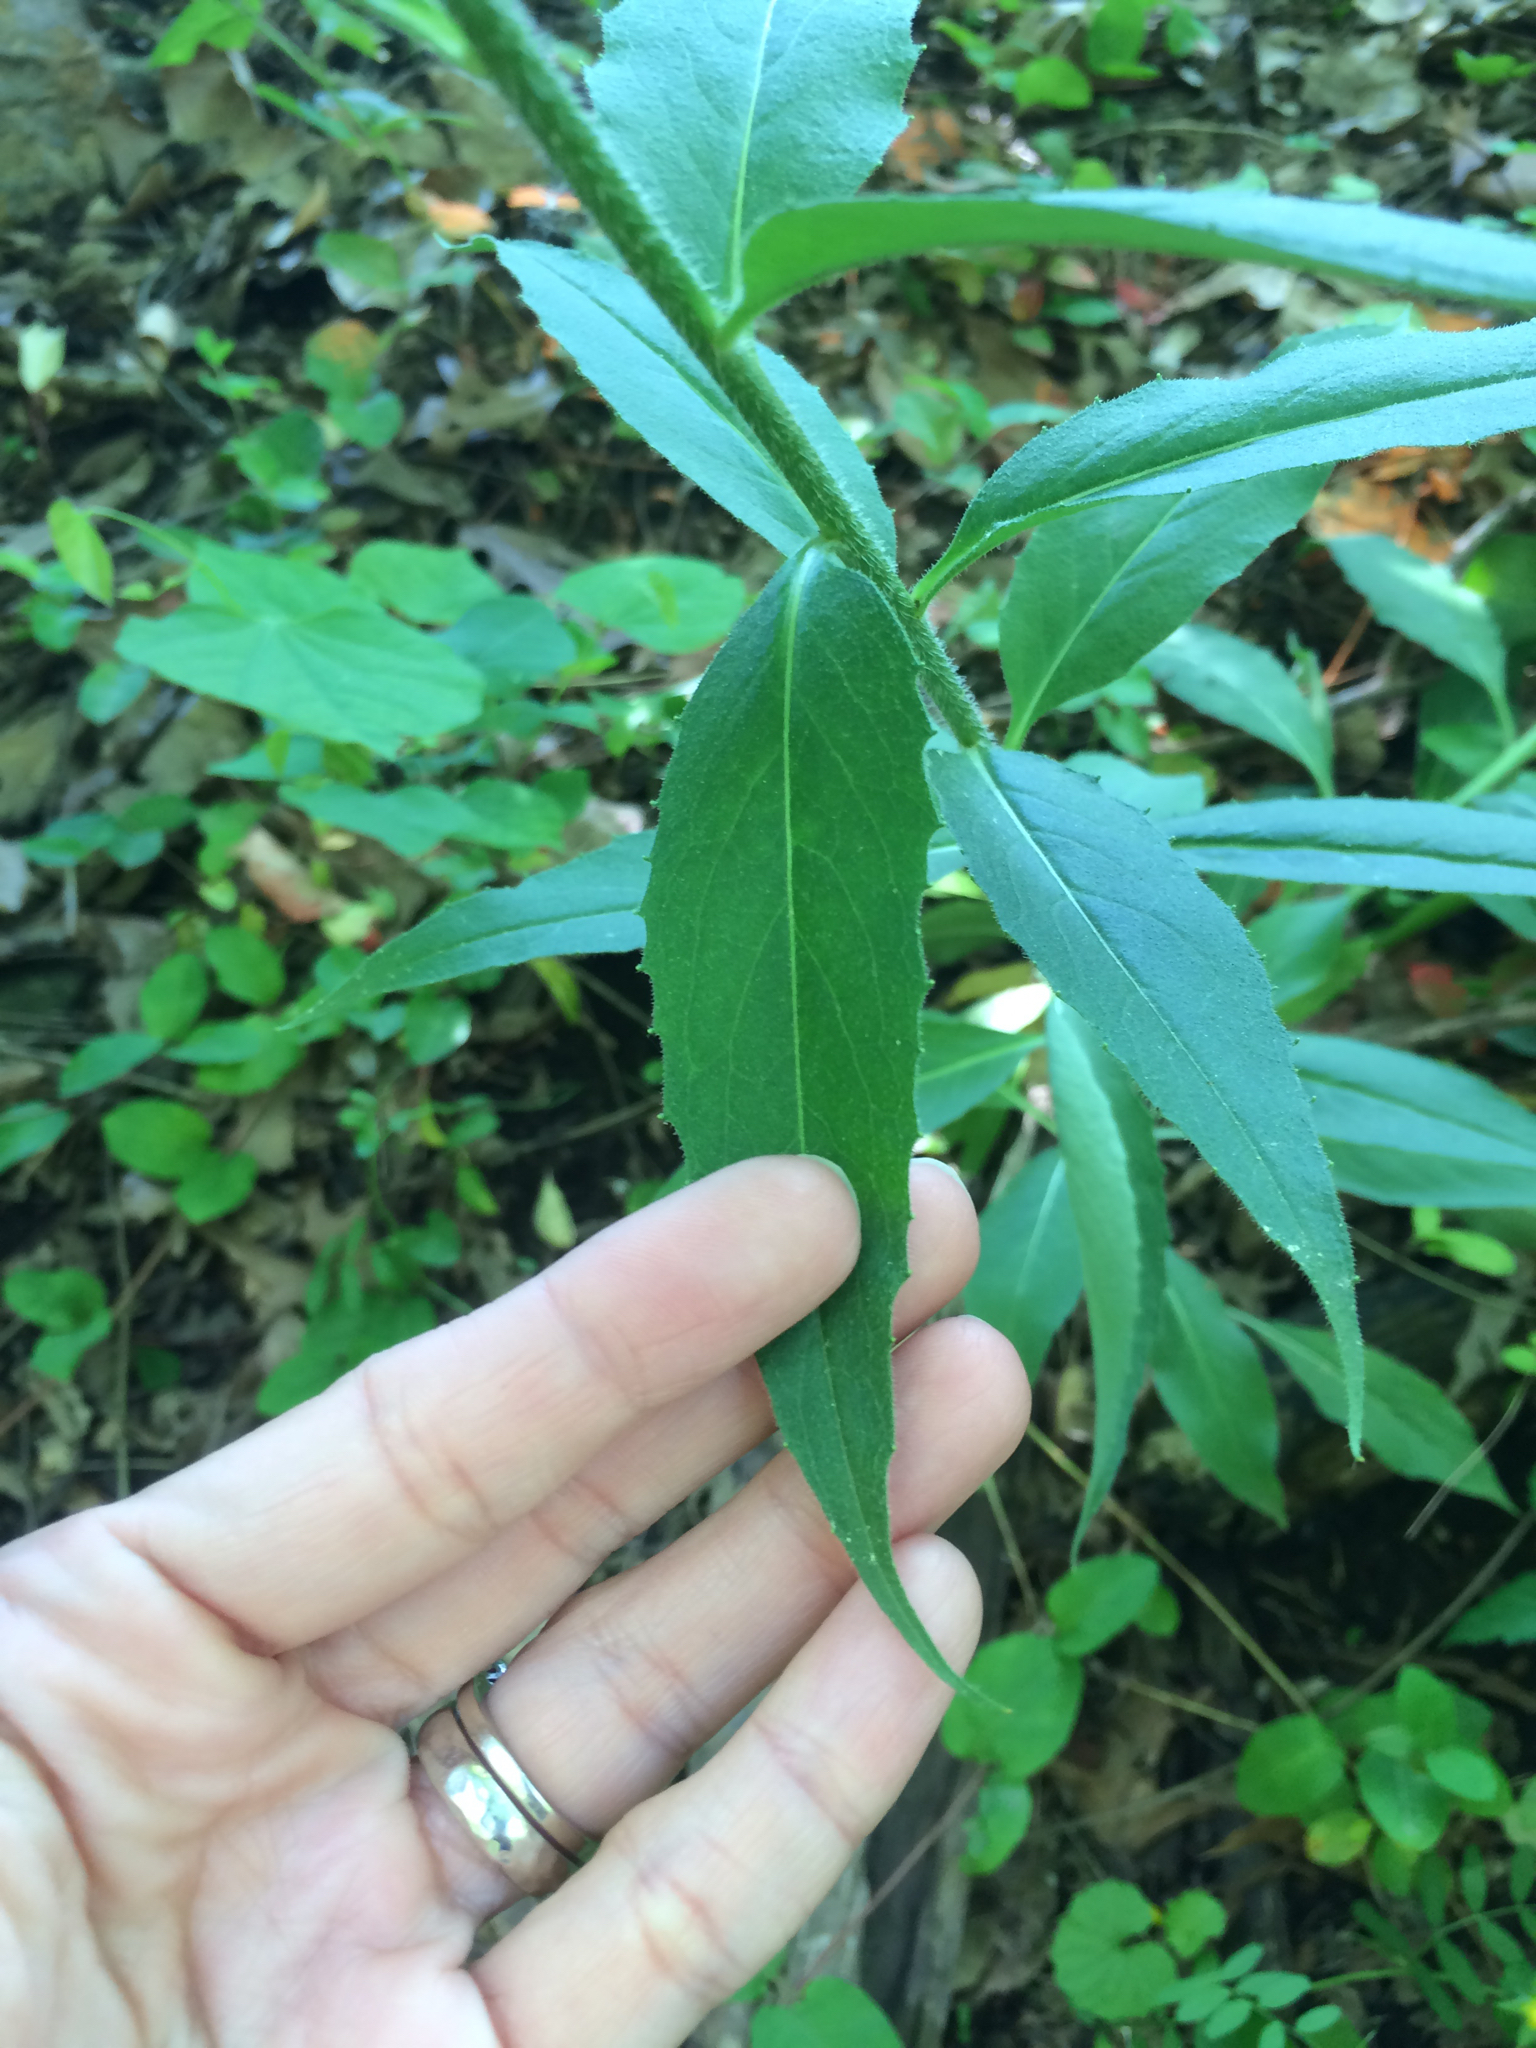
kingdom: Plantae
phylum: Tracheophyta
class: Magnoliopsida
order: Brassicales
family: Brassicaceae
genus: Hesperis
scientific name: Hesperis matronalis
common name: Dame's-violet
